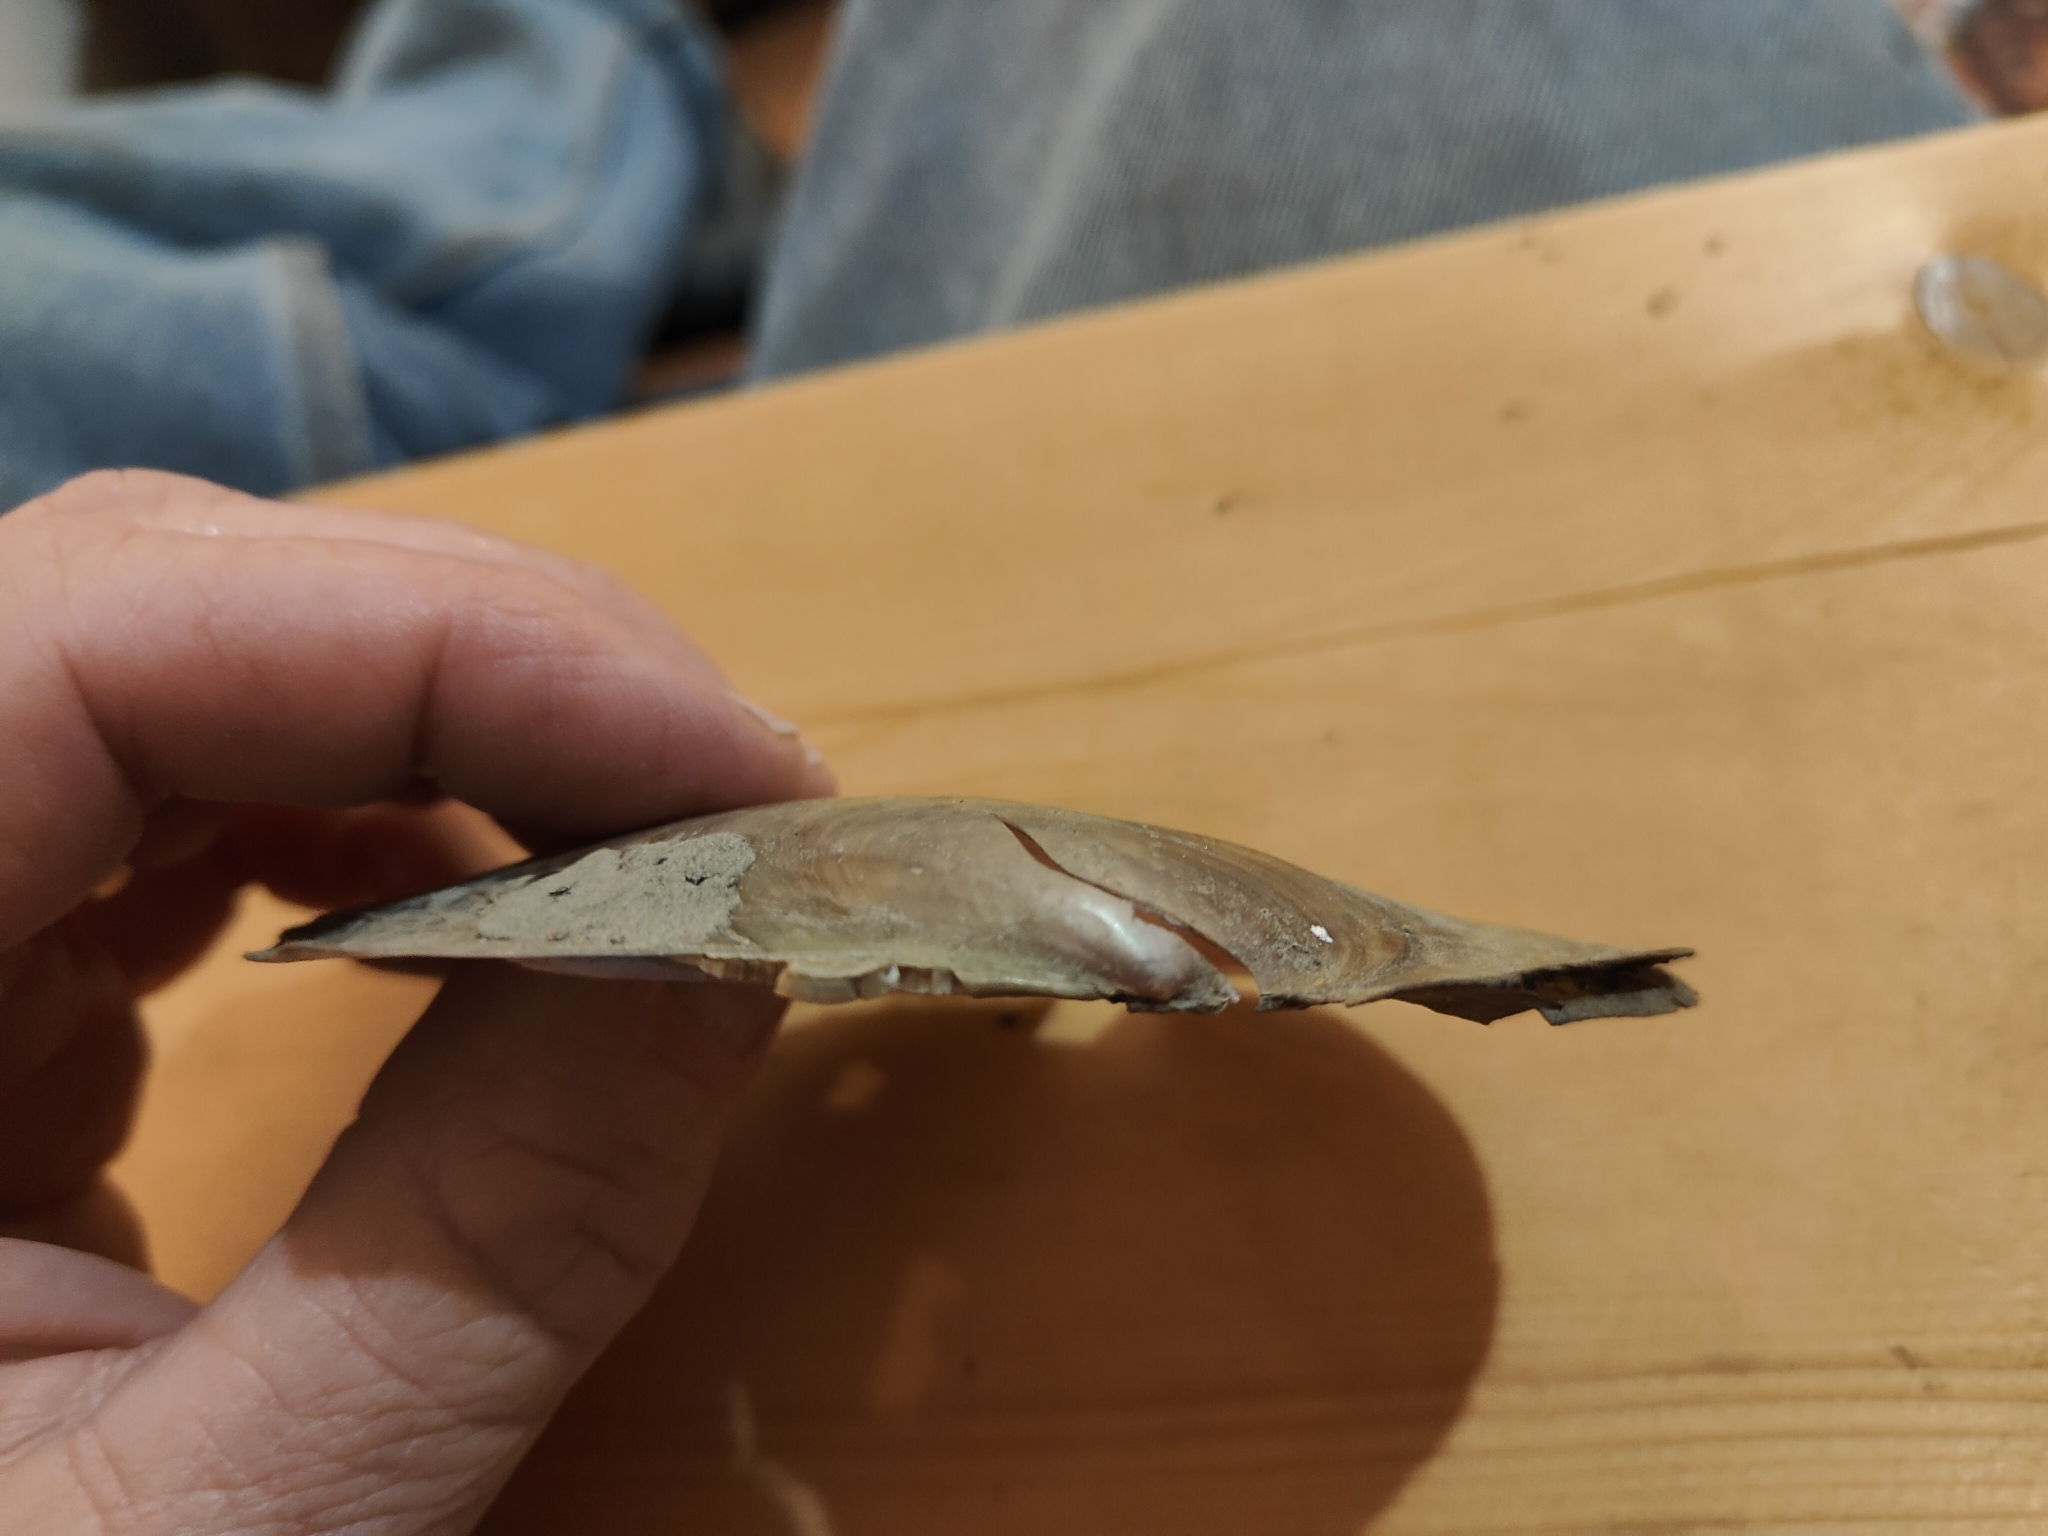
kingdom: Animalia
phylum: Mollusca
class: Bivalvia
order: Unionida
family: Unionidae
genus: Potamilus
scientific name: Potamilus ohiensis
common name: Pink papershell
